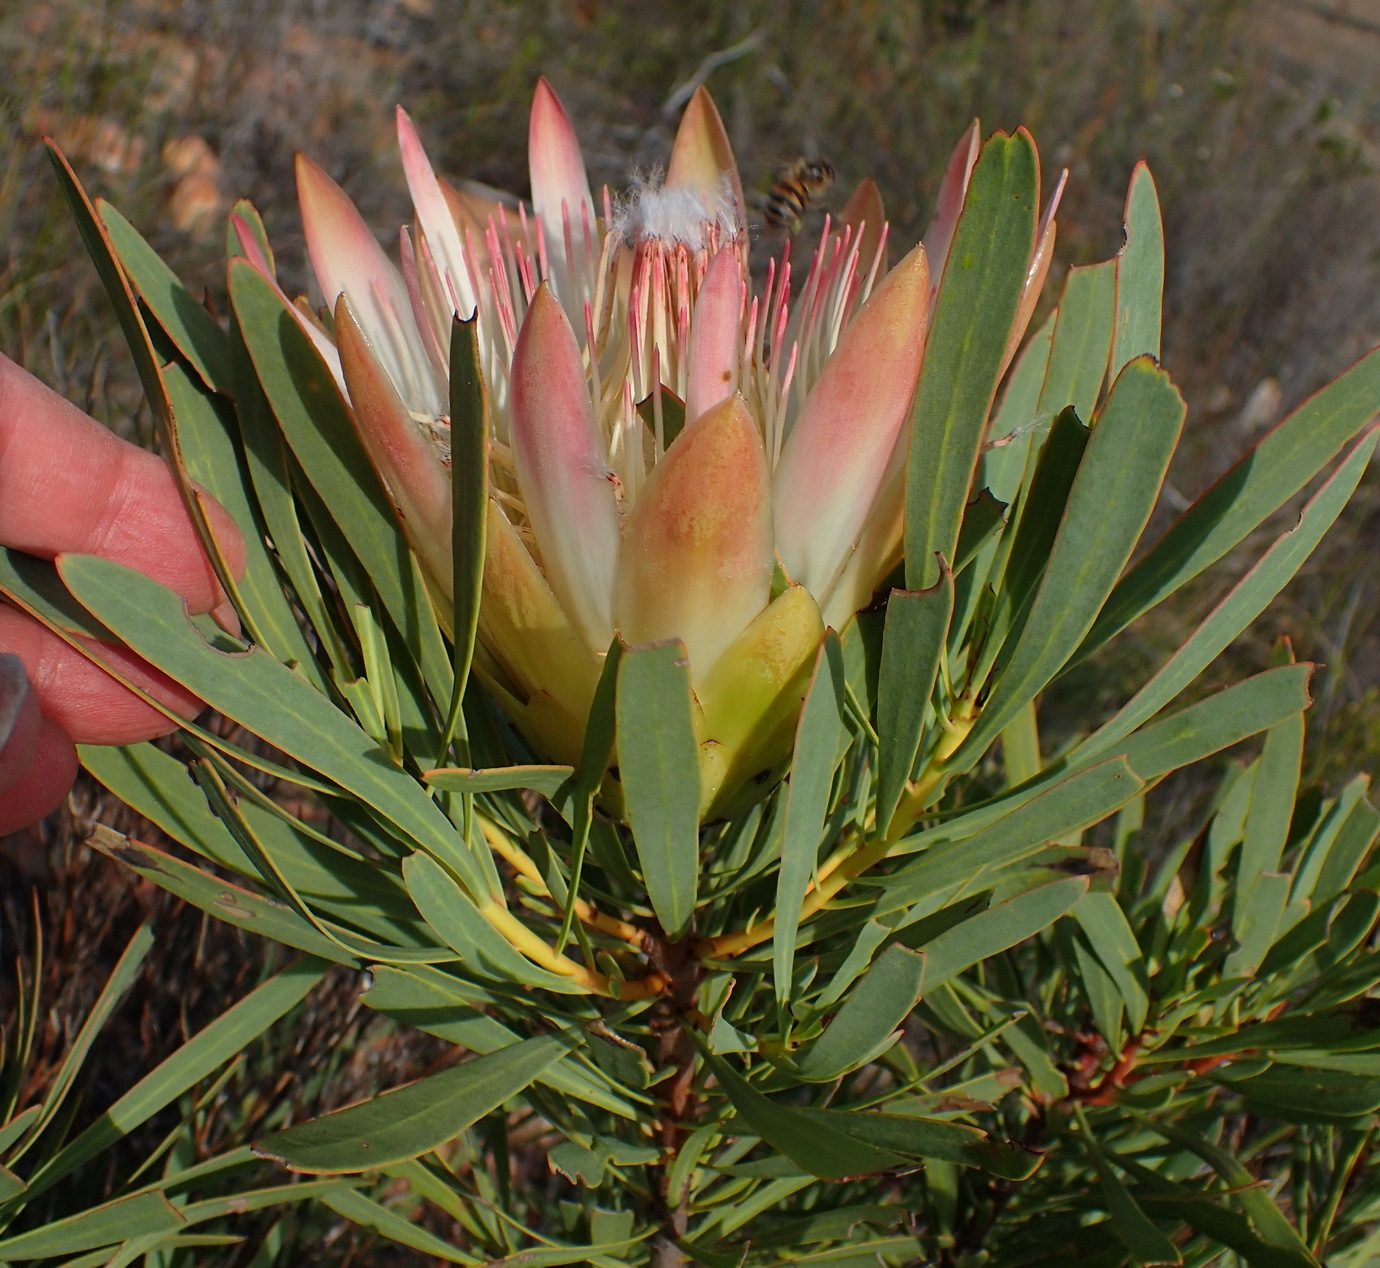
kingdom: Plantae
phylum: Tracheophyta
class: Magnoliopsida
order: Proteales
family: Proteaceae
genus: Protea
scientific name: Protea repens
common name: Sugarbush
